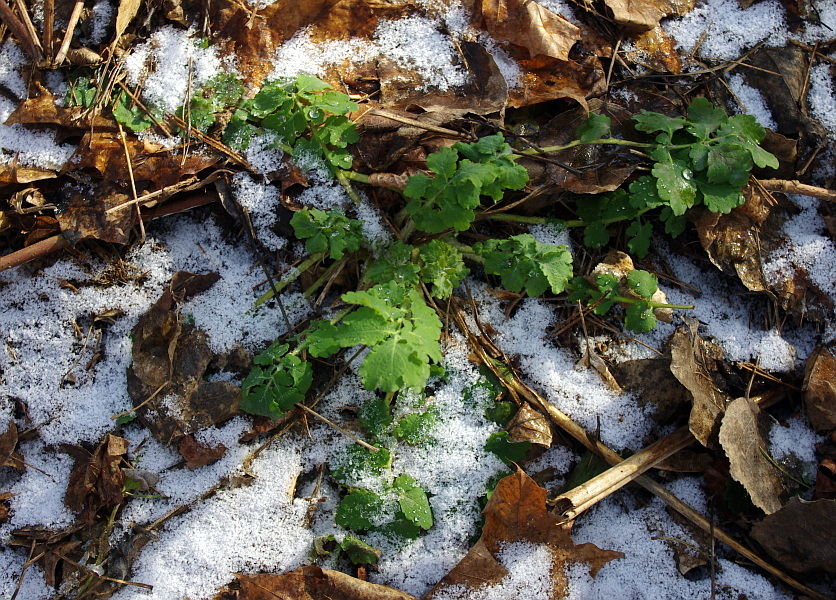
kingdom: Plantae
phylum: Tracheophyta
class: Magnoliopsida
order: Ranunculales
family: Papaveraceae
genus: Chelidonium
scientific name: Chelidonium majus
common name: Greater celandine
